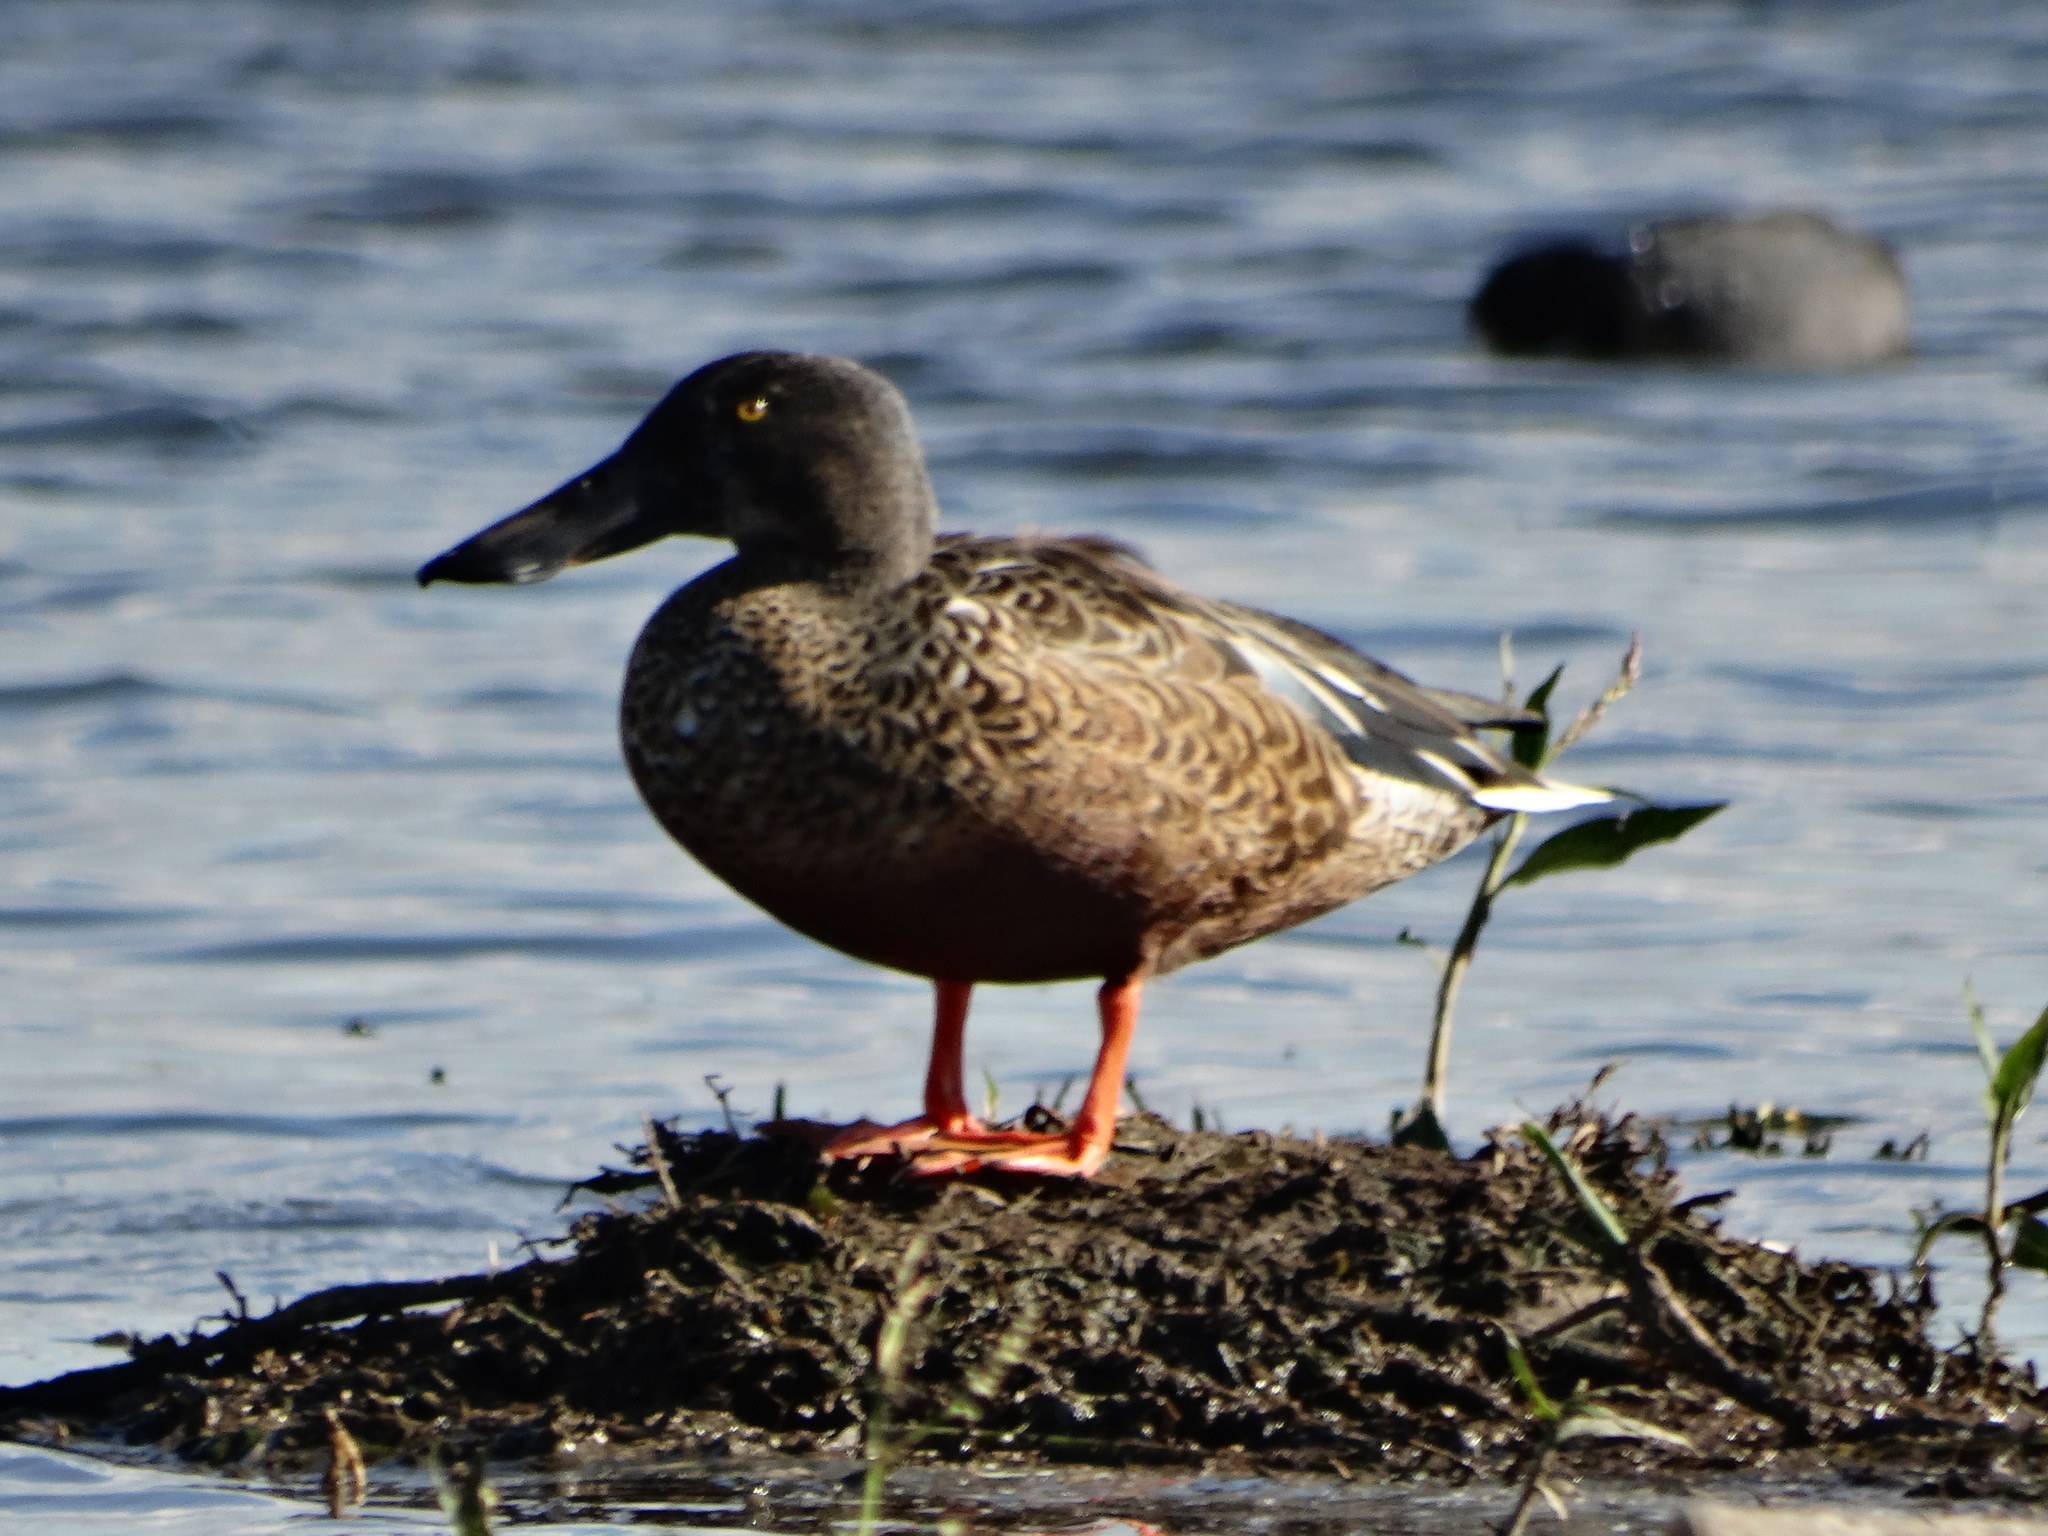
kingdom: Animalia
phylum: Chordata
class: Aves
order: Anseriformes
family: Anatidae
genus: Spatula
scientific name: Spatula clypeata
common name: Northern shoveler
